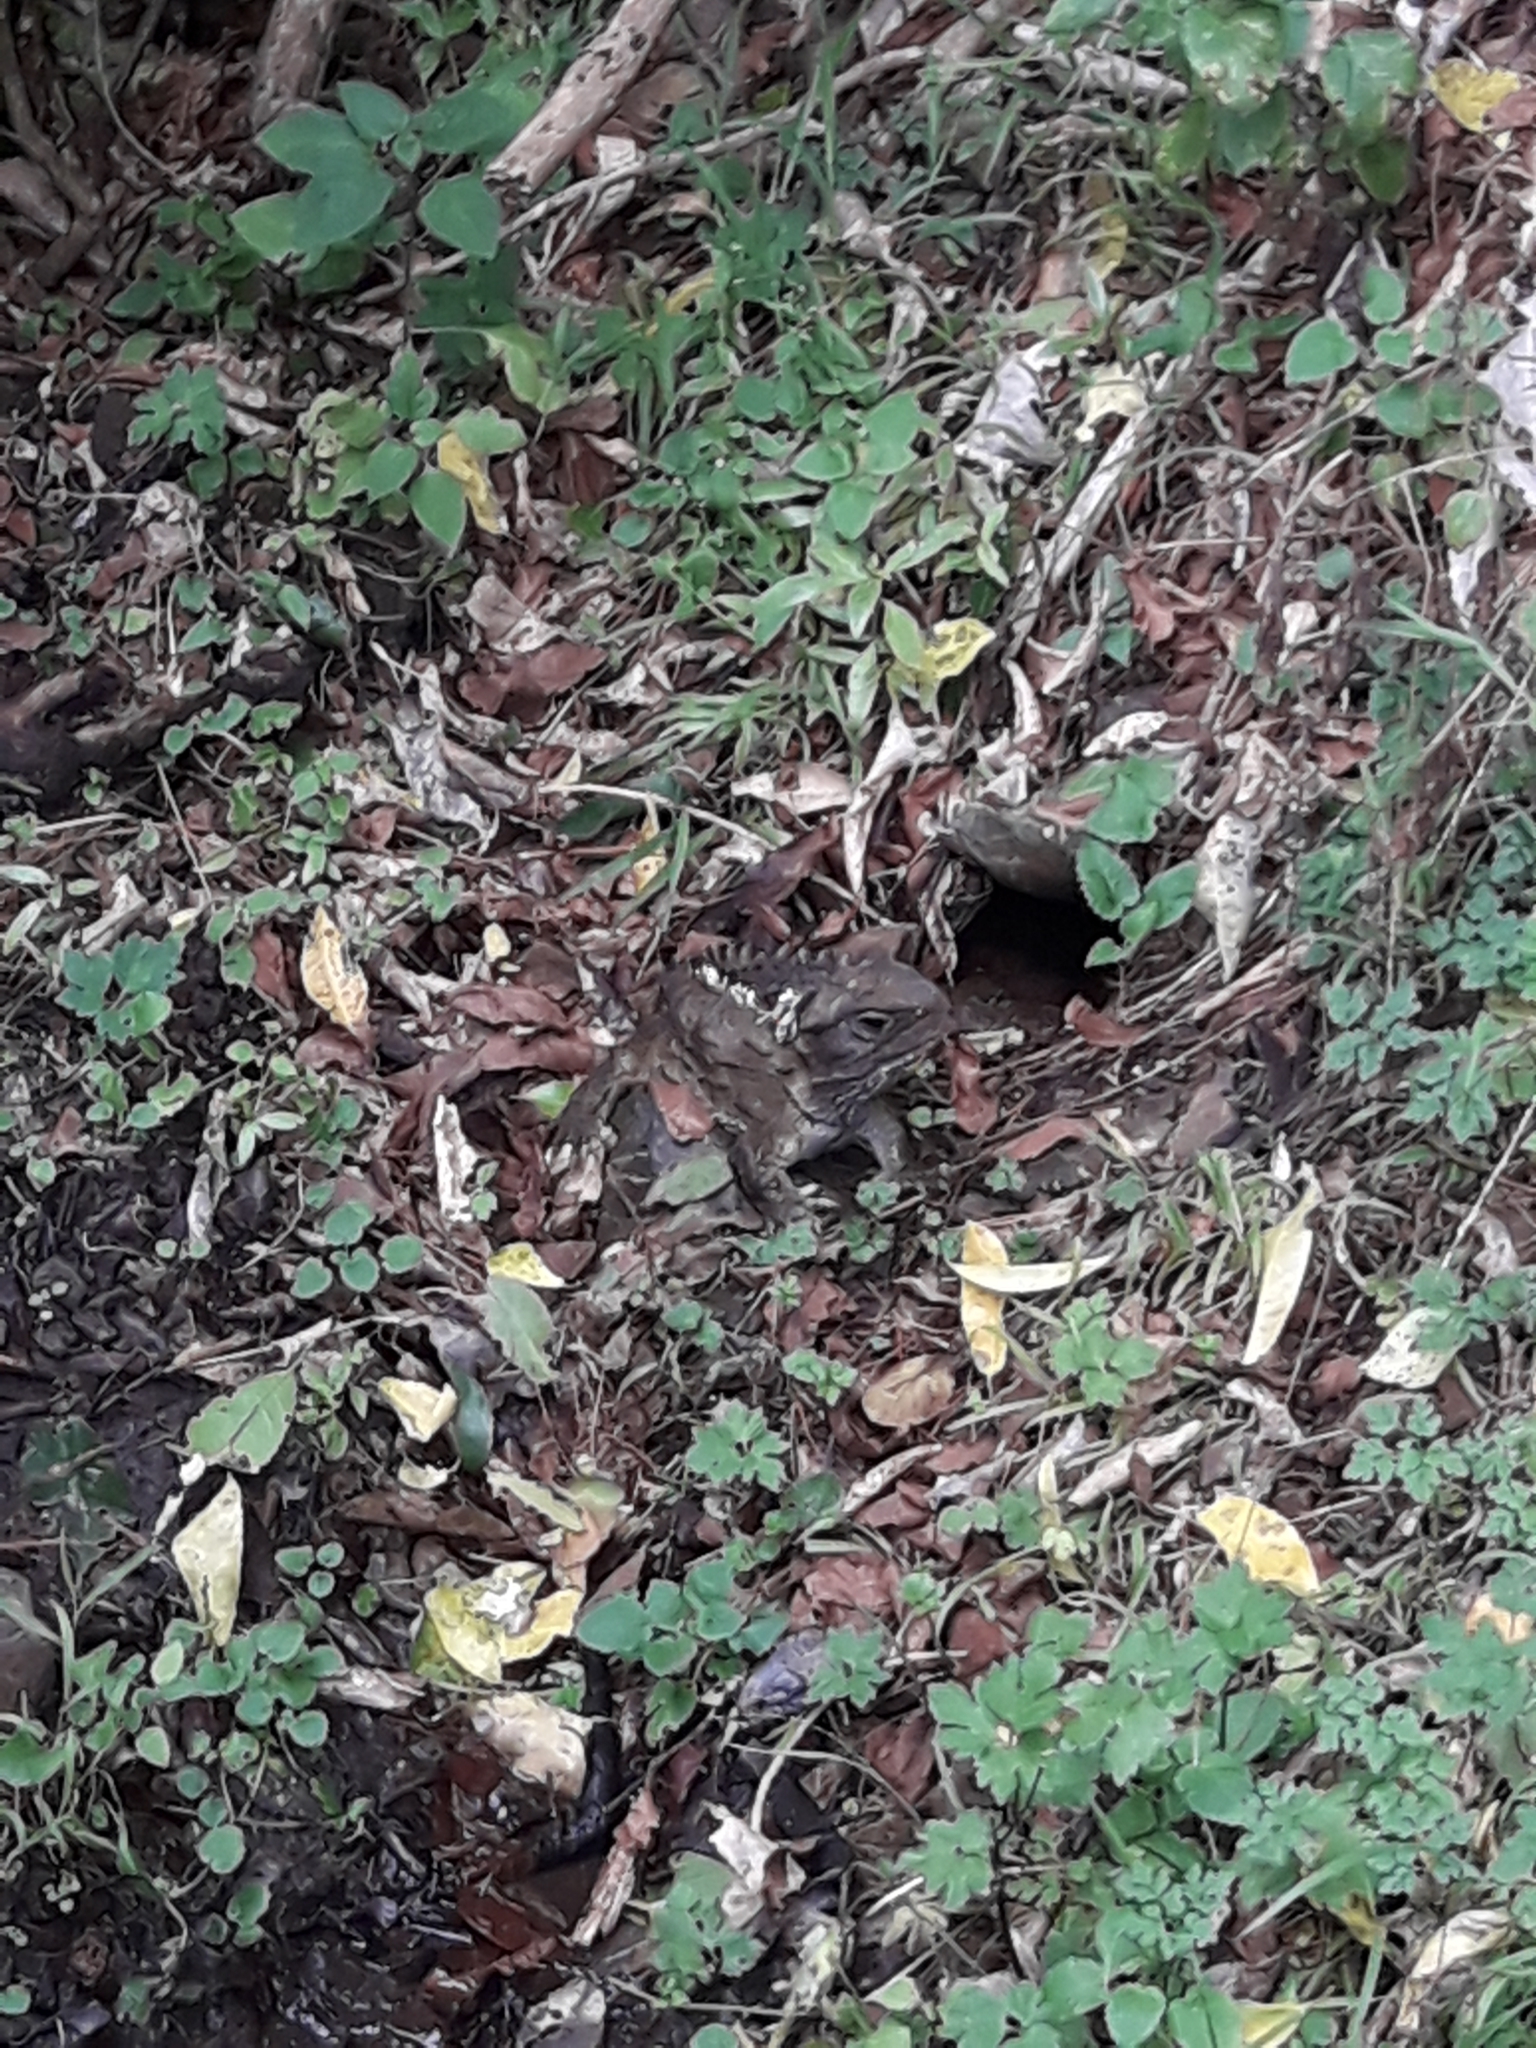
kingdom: Animalia
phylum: Chordata
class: Sphenodontia
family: Sphenodontidae
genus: Sphenodon
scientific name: Sphenodon punctatus
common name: Tuatara
